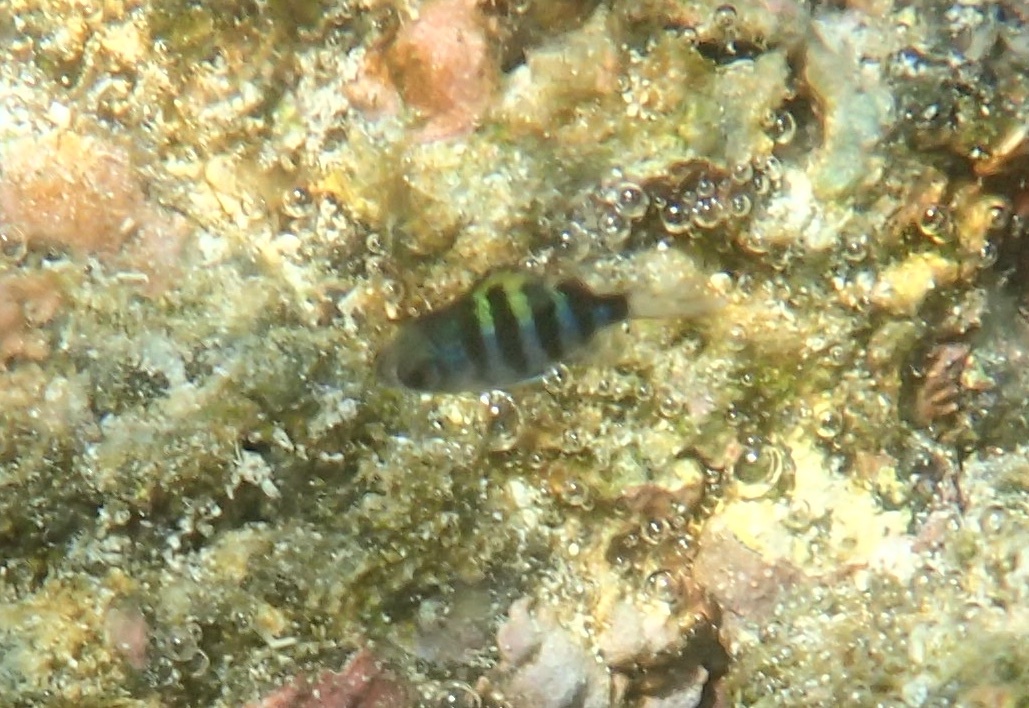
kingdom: Animalia
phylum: Chordata
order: Perciformes
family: Pomacentridae
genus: Abudefduf
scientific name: Abudefduf
